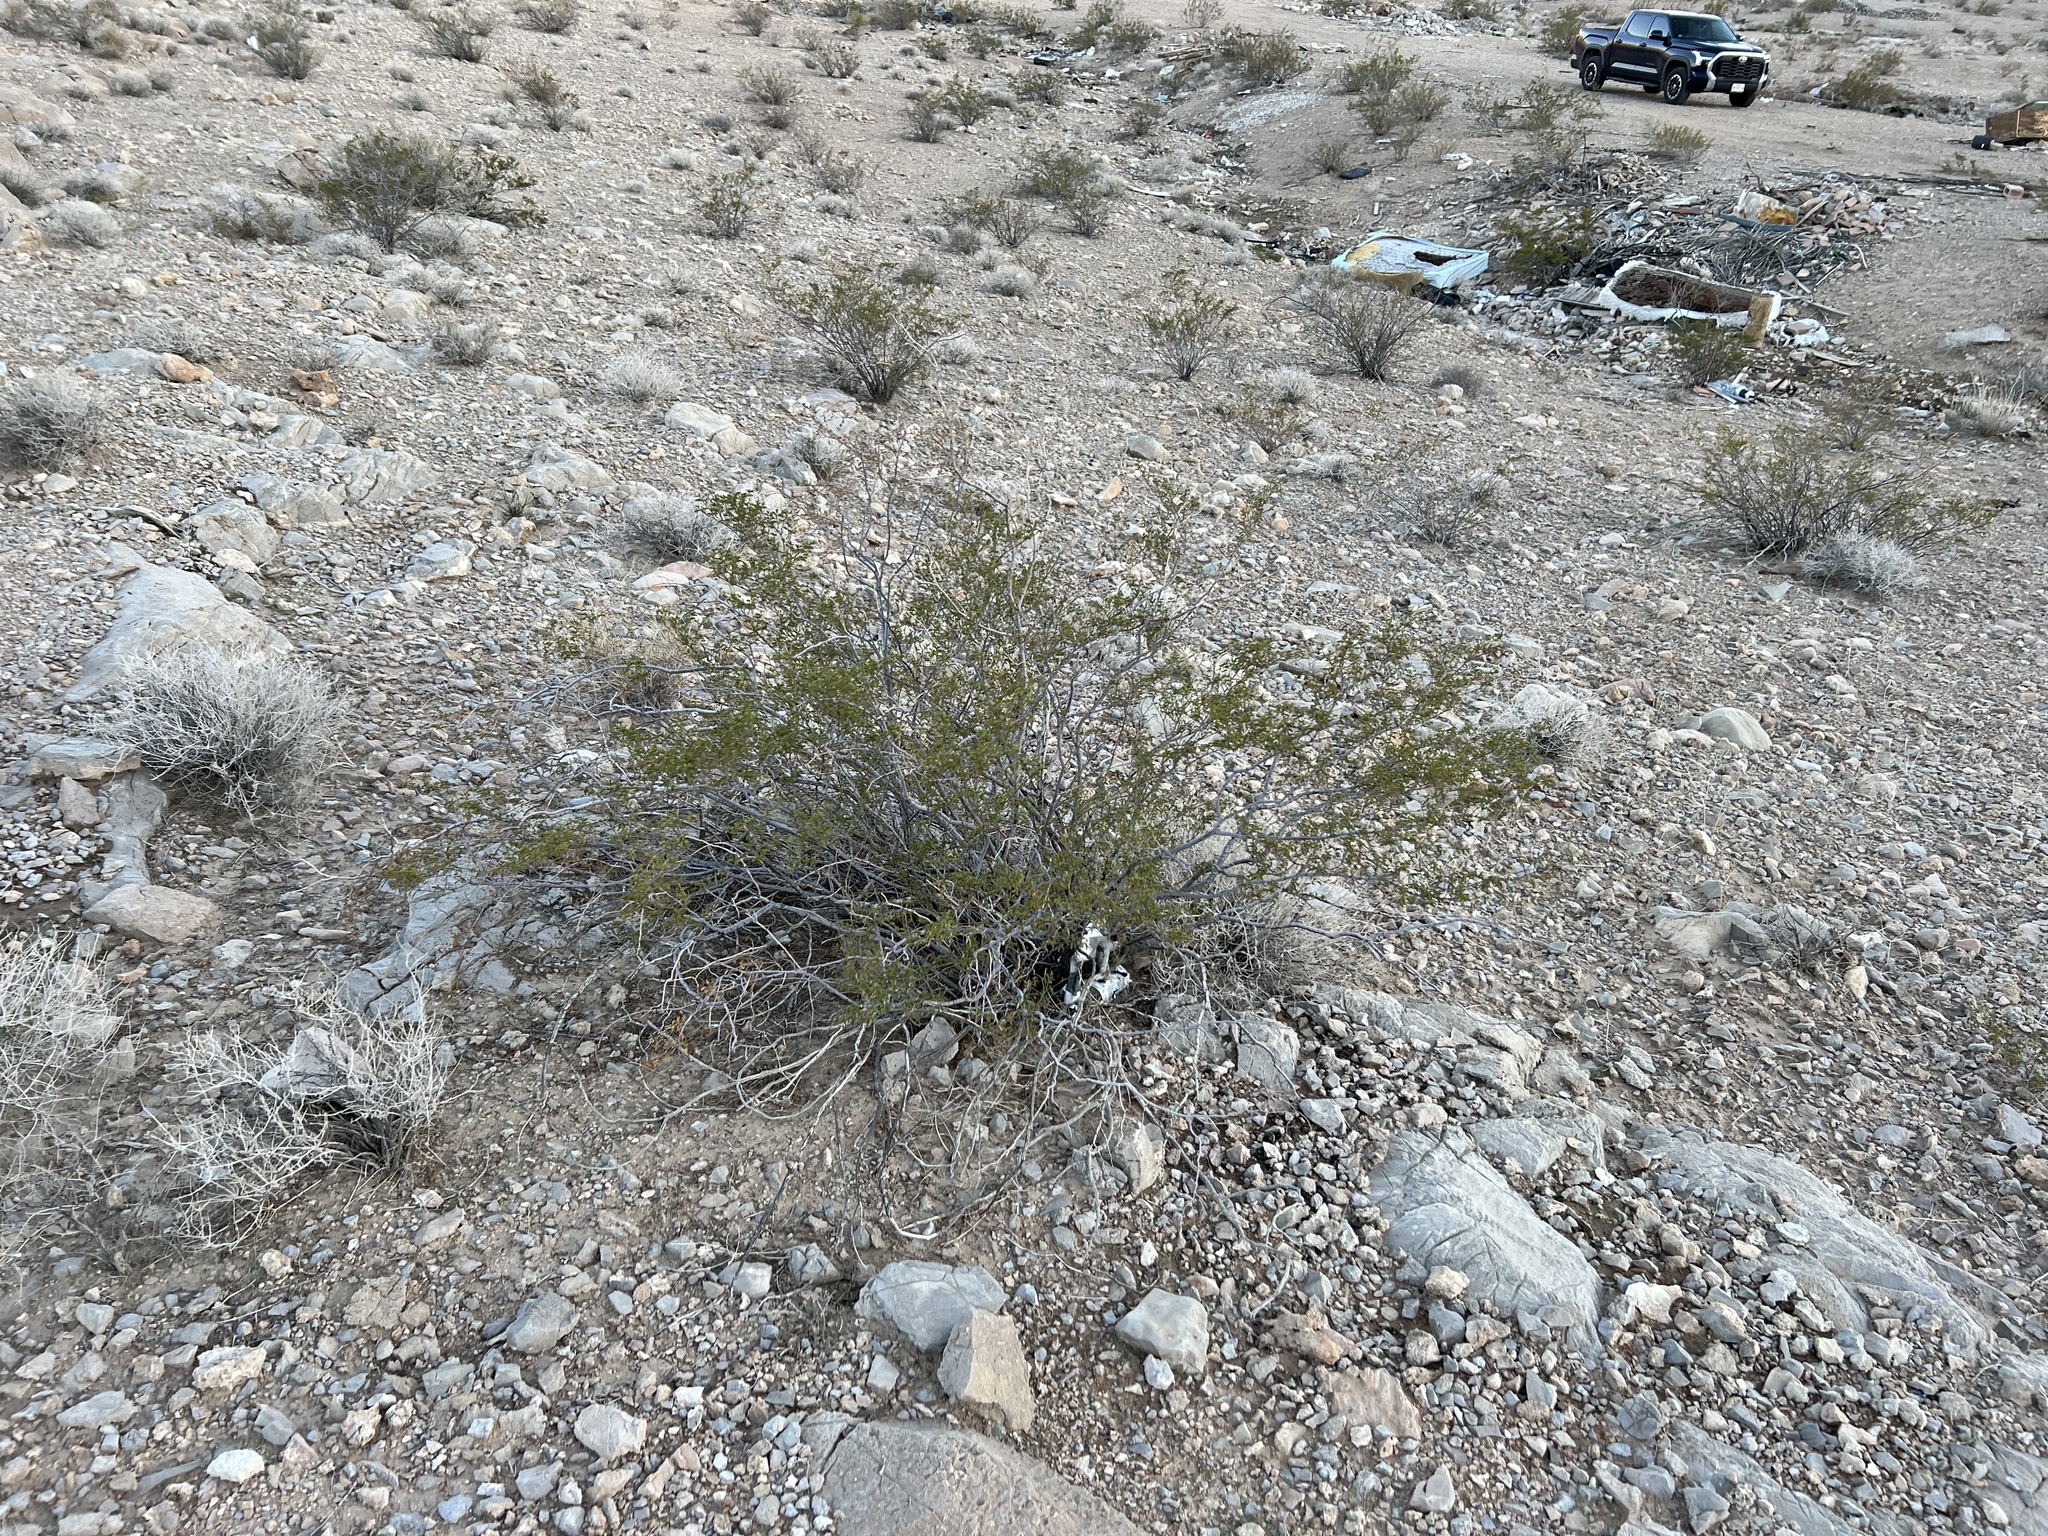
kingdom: Plantae
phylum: Tracheophyta
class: Magnoliopsida
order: Zygophyllales
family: Zygophyllaceae
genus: Larrea
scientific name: Larrea tridentata
